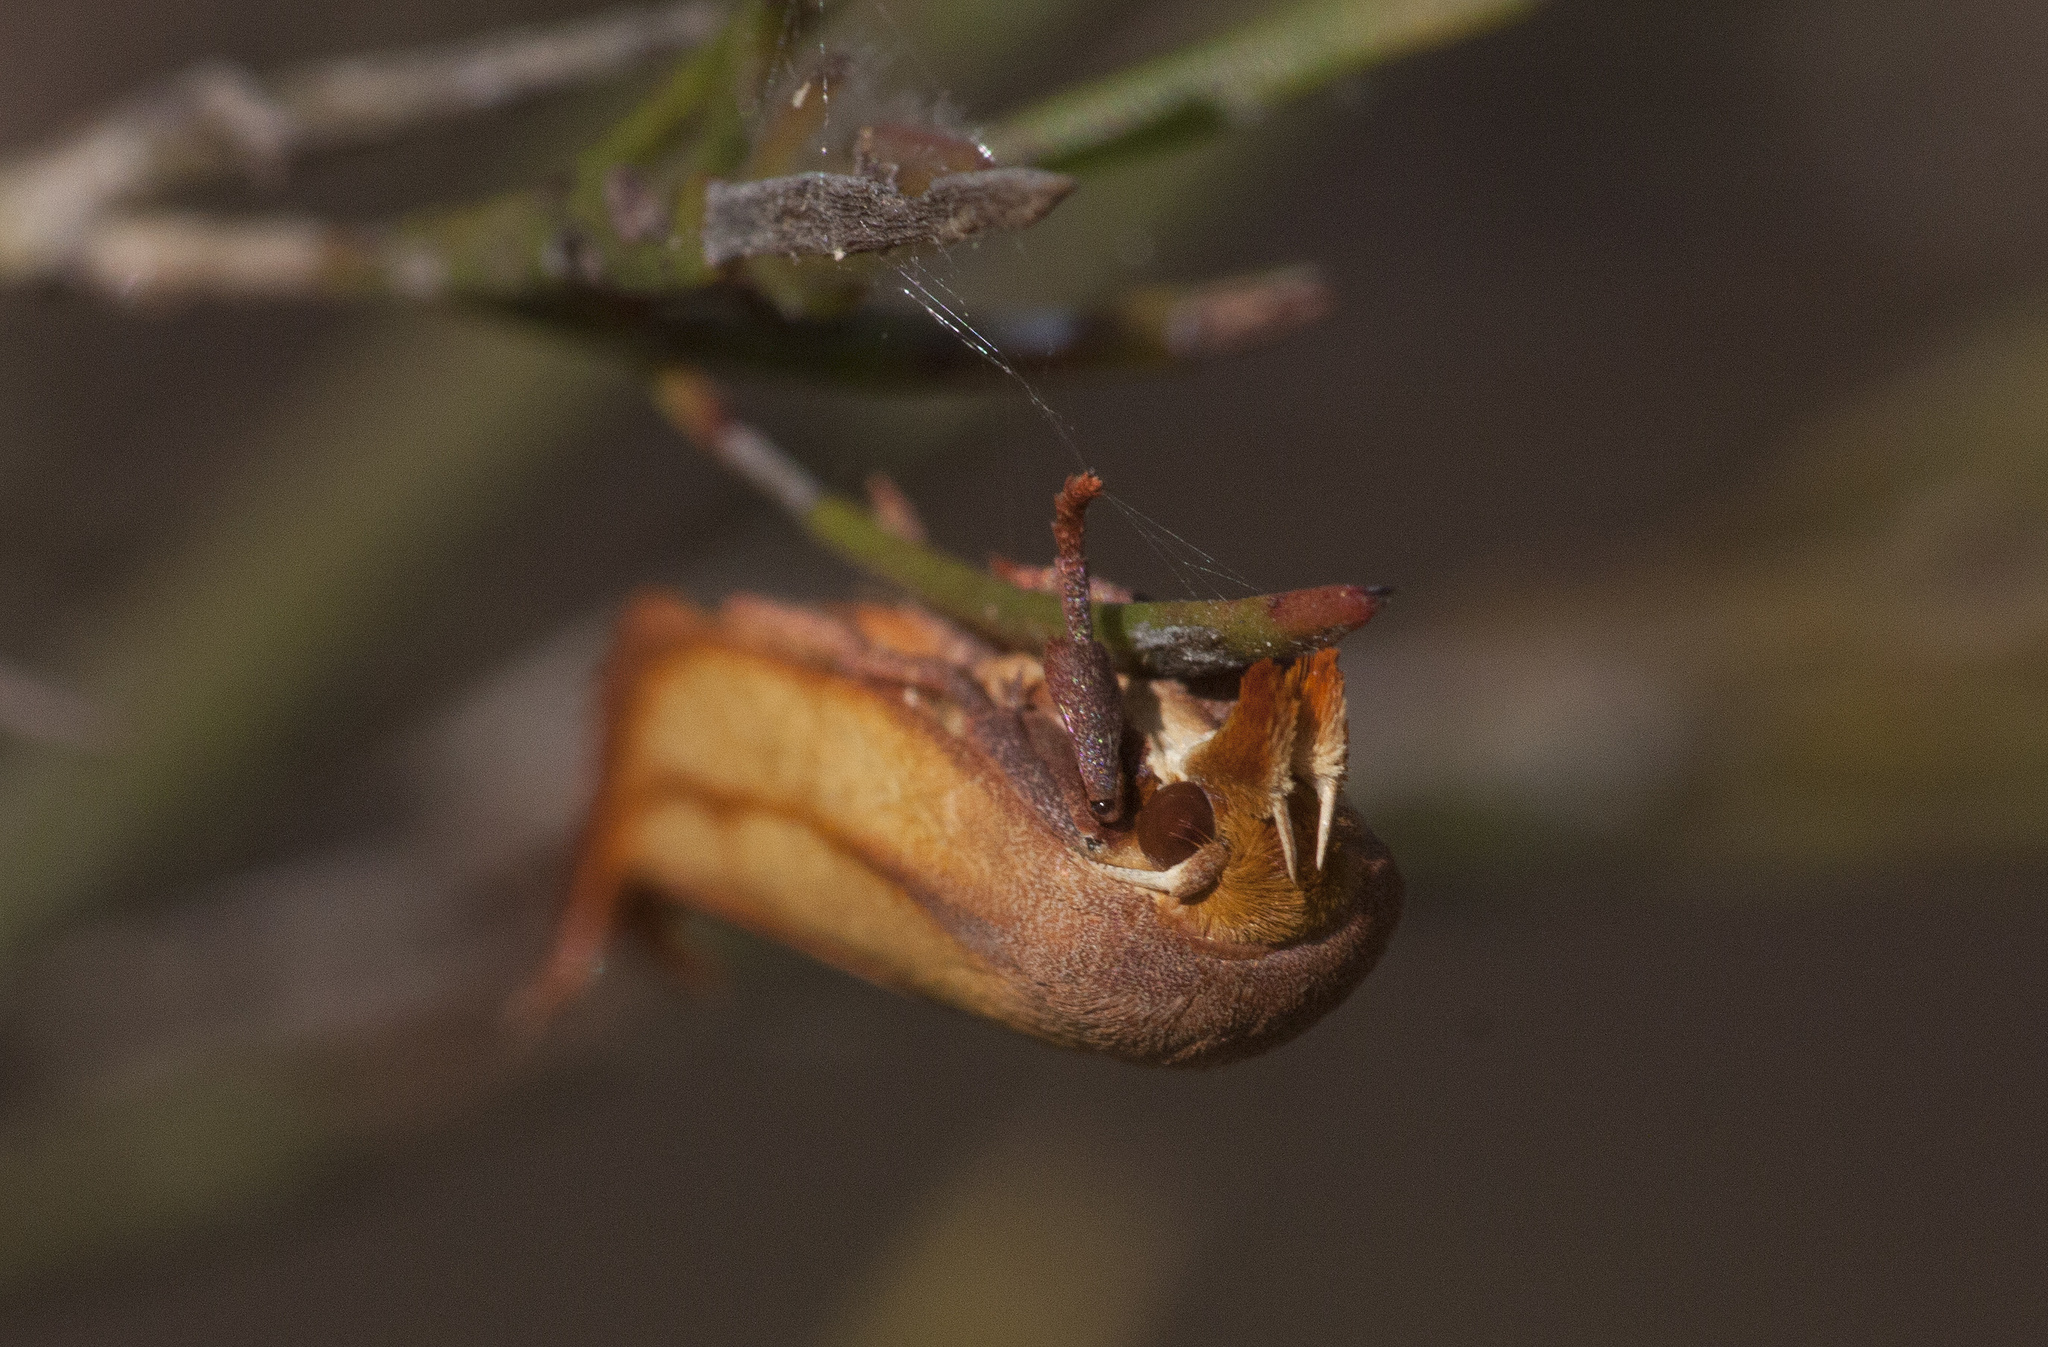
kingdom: Animalia
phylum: Arthropoda
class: Insecta
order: Lepidoptera
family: Oecophoridae
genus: Wingia
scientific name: Wingia aurata
